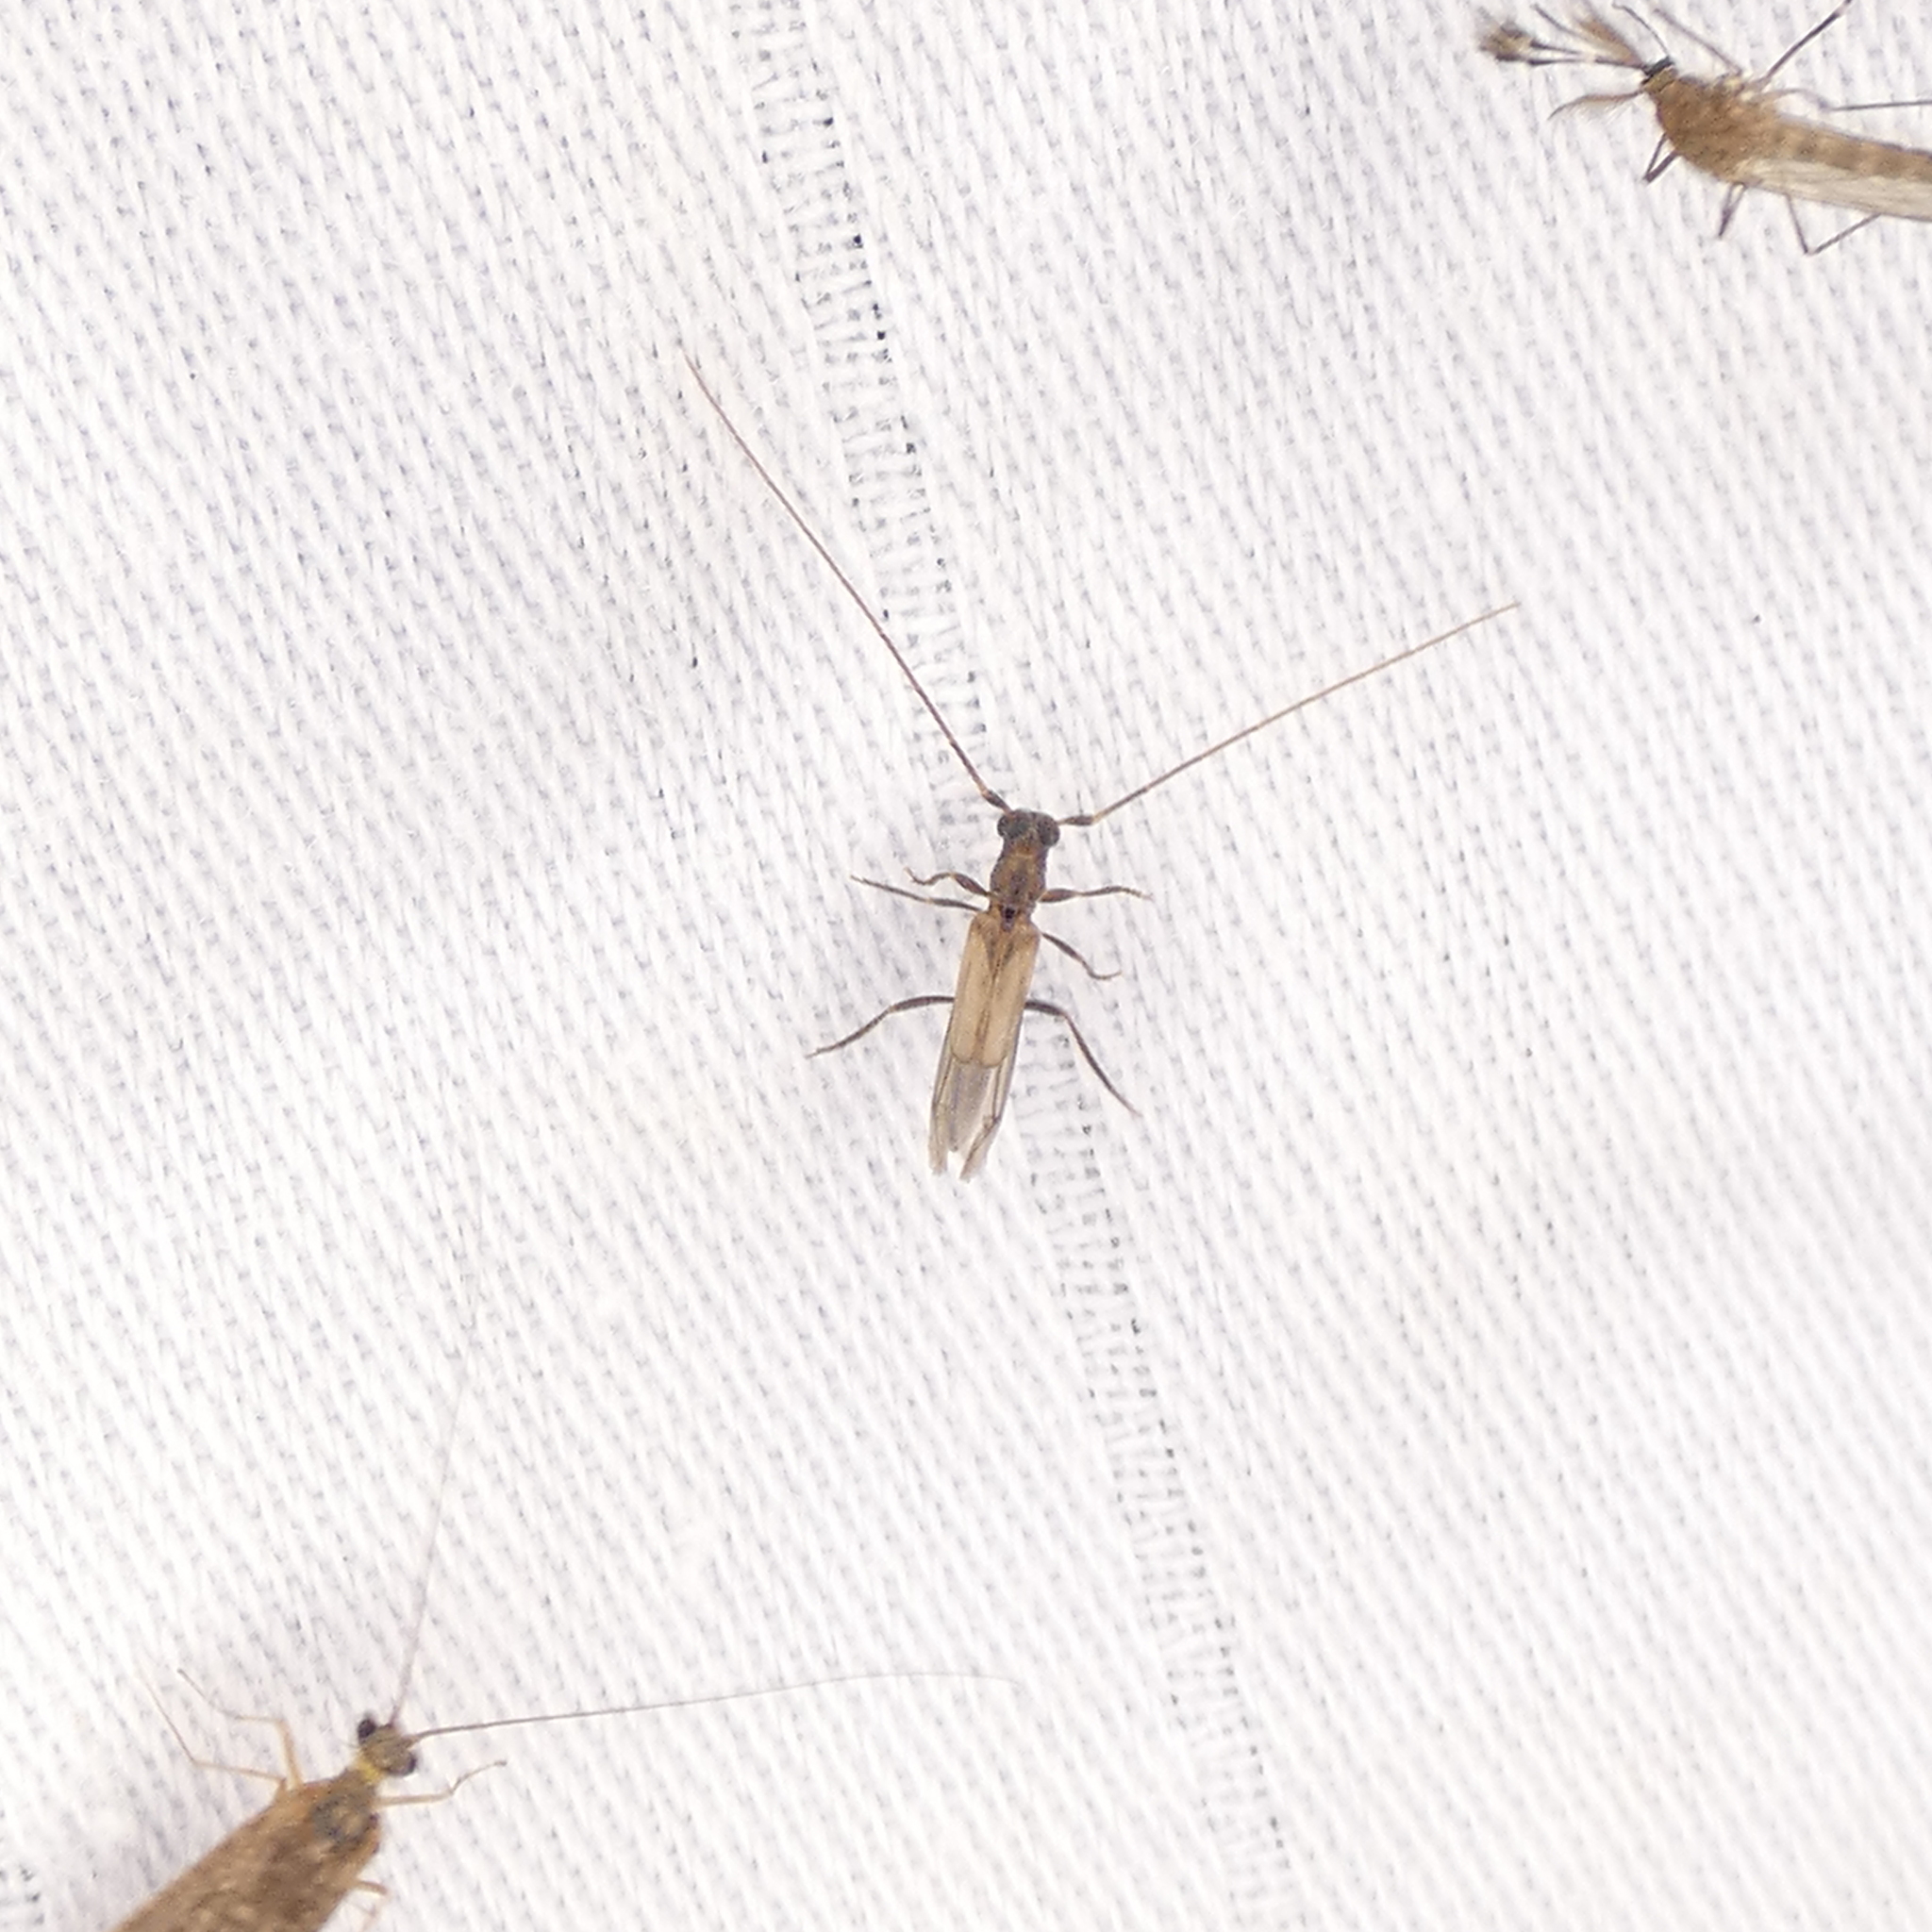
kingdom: Animalia
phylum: Arthropoda
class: Insecta
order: Coleoptera
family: Cerambycidae
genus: Methia
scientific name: Methia necydalea
